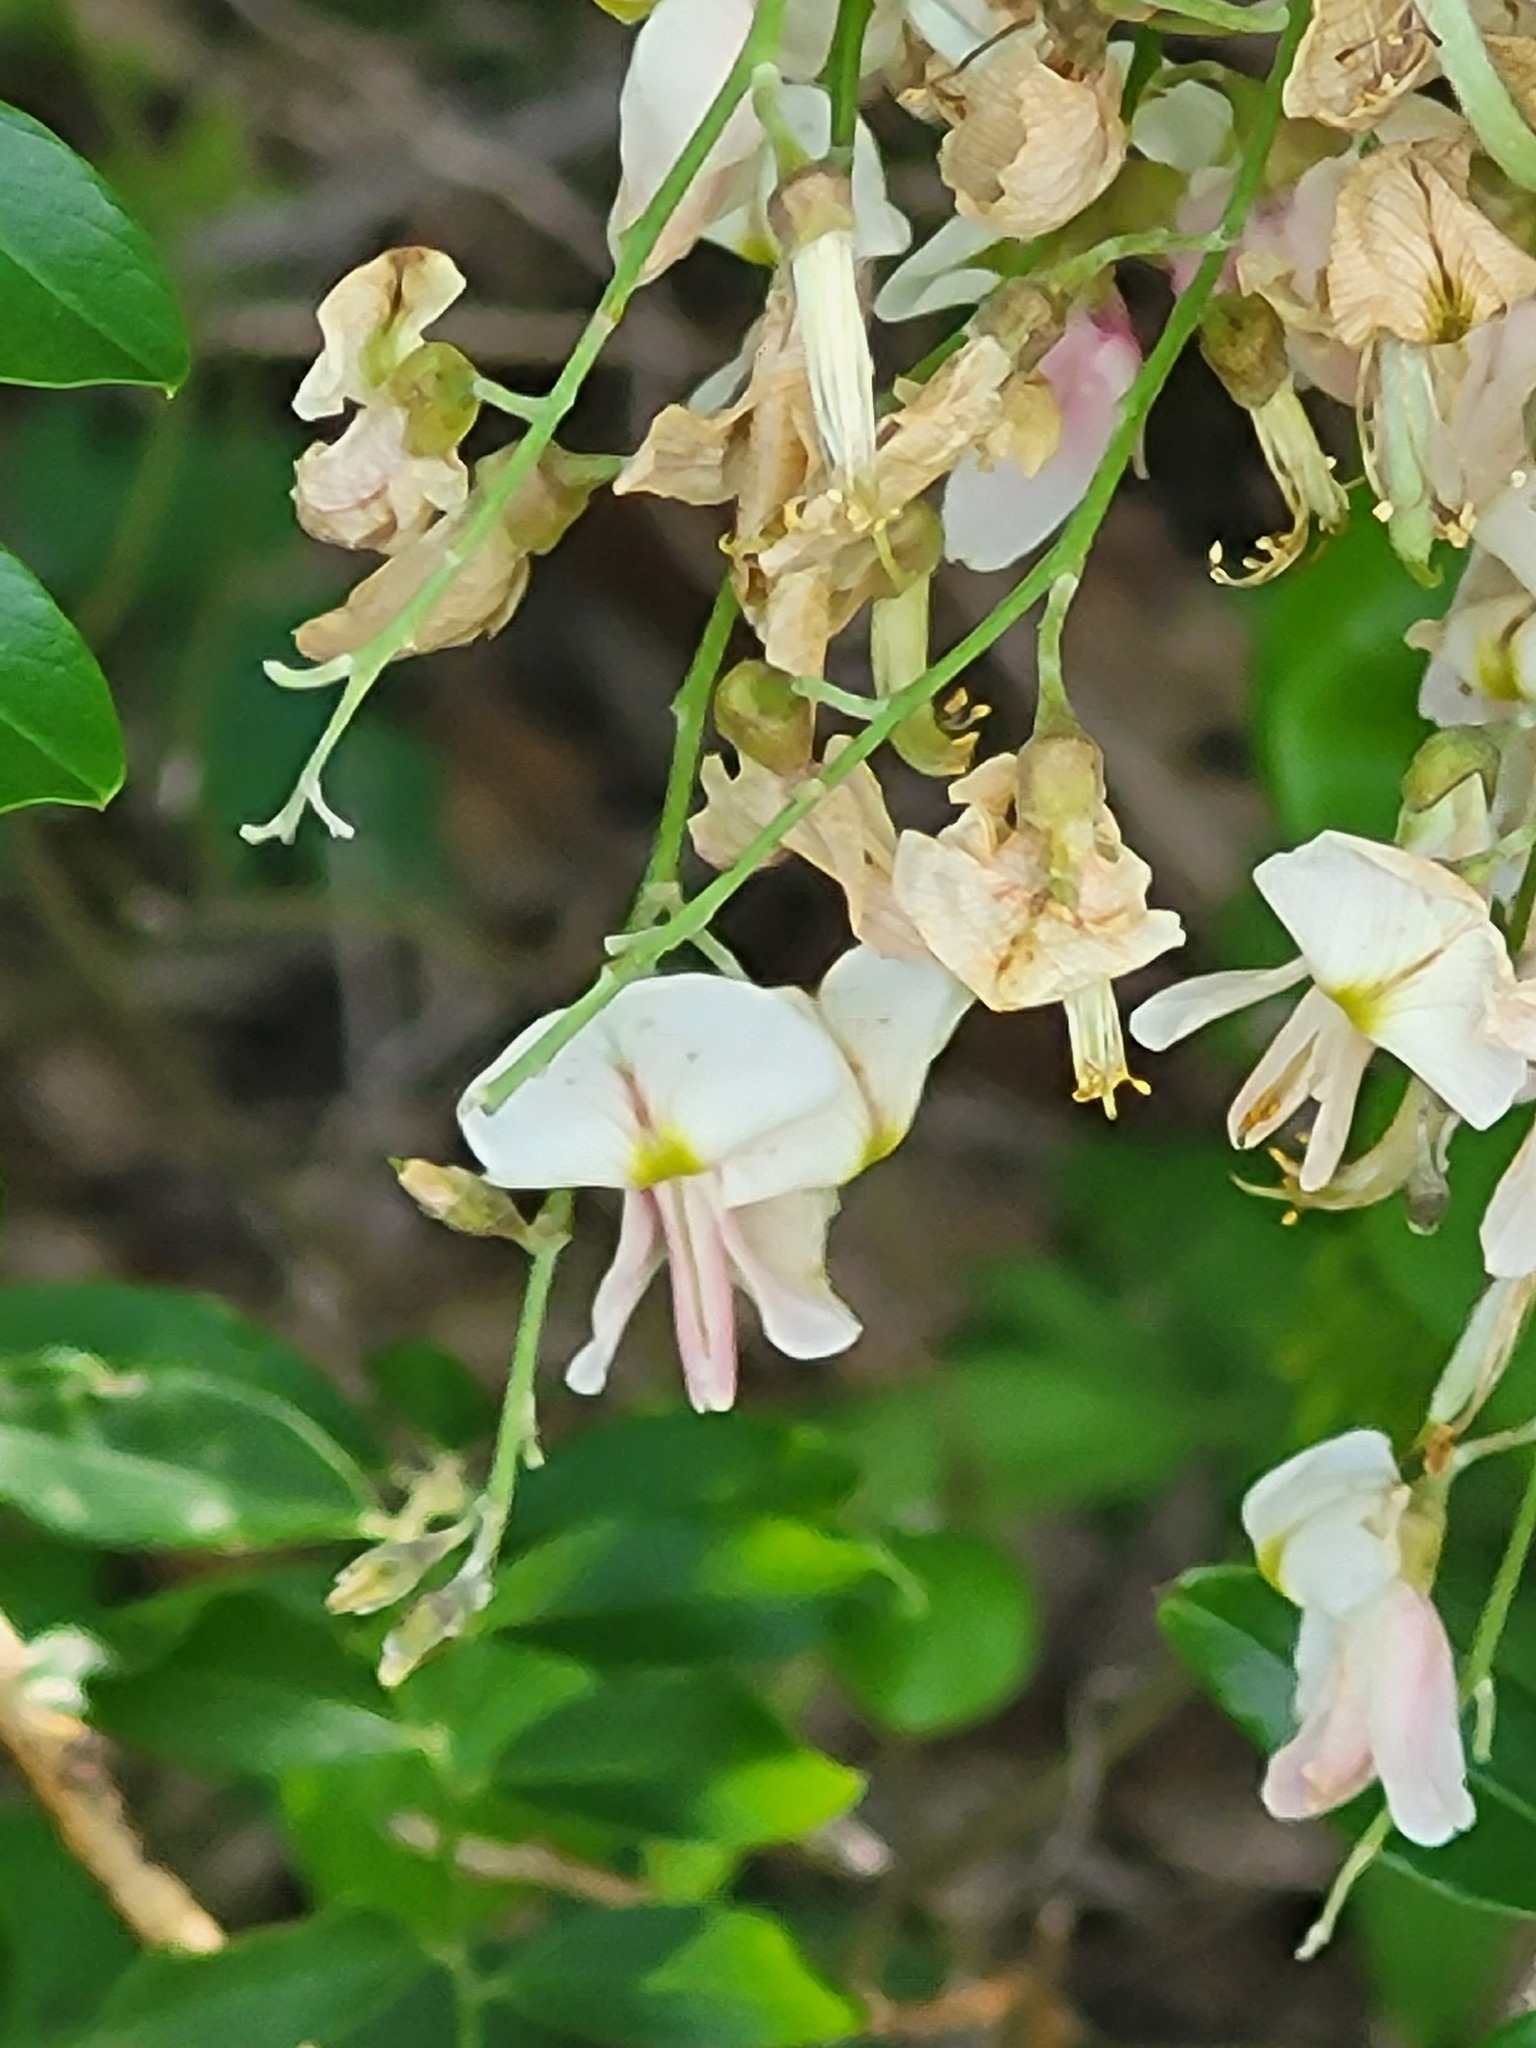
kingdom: Plantae
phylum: Tracheophyta
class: Magnoliopsida
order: Fabales
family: Fabaceae
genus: Styphnolobium
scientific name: Styphnolobium affine
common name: Texas sophora
